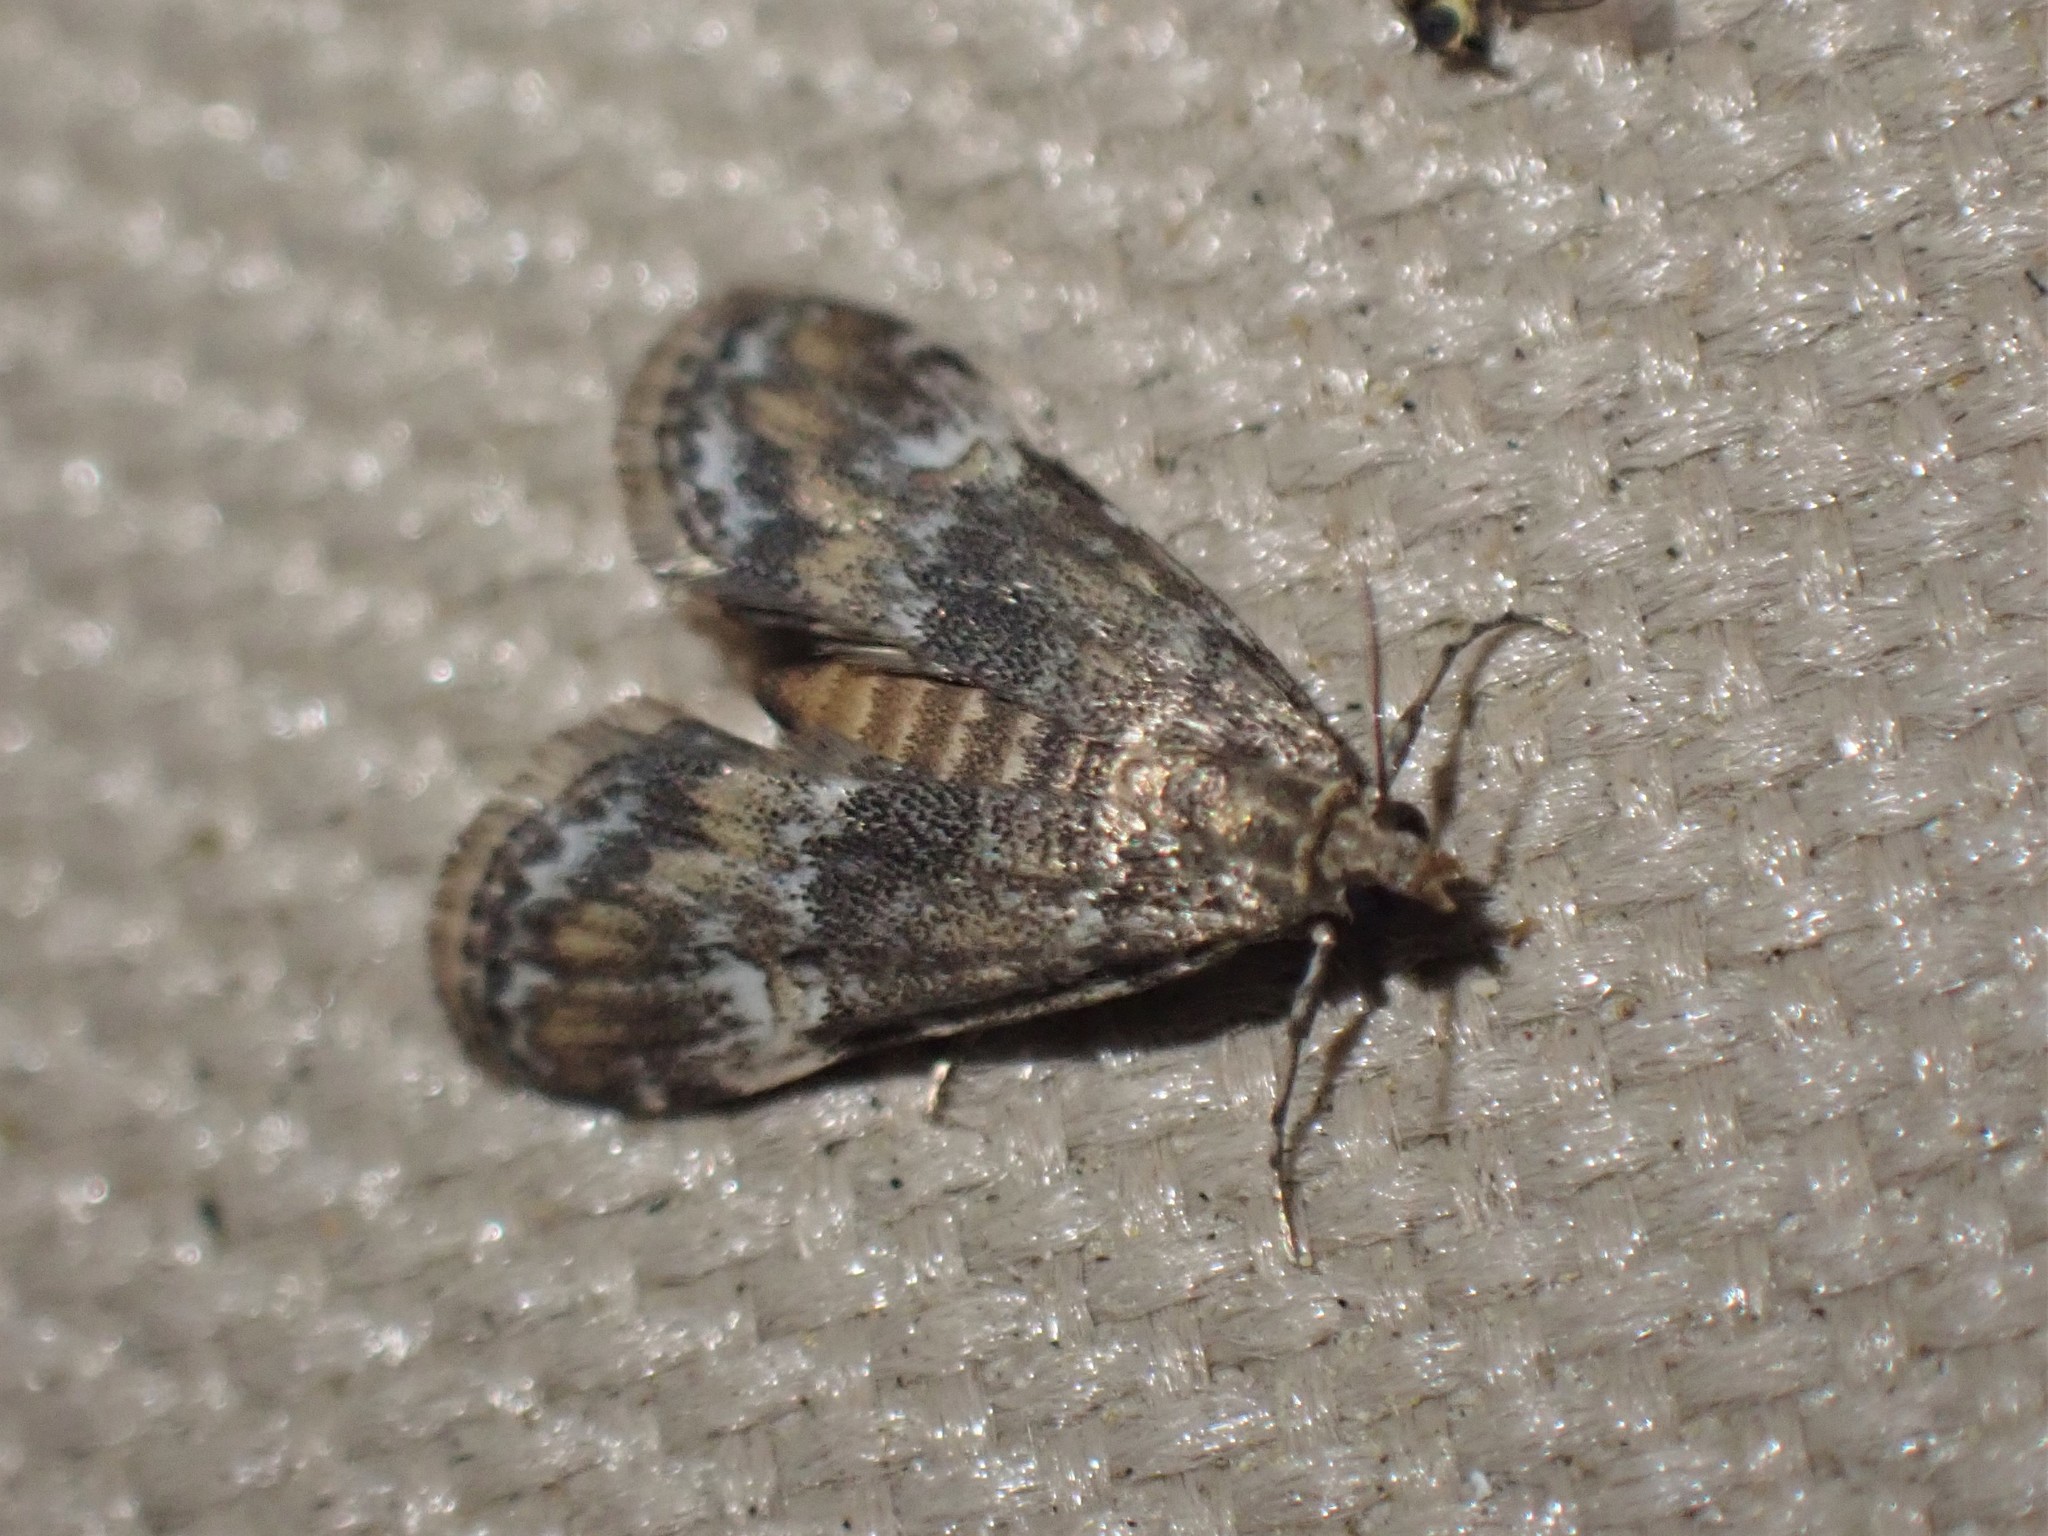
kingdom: Animalia
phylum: Arthropoda
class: Insecta
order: Lepidoptera
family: Crambidae
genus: Elophila
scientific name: Elophila obliteralis
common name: Waterlily leafcutter moth
